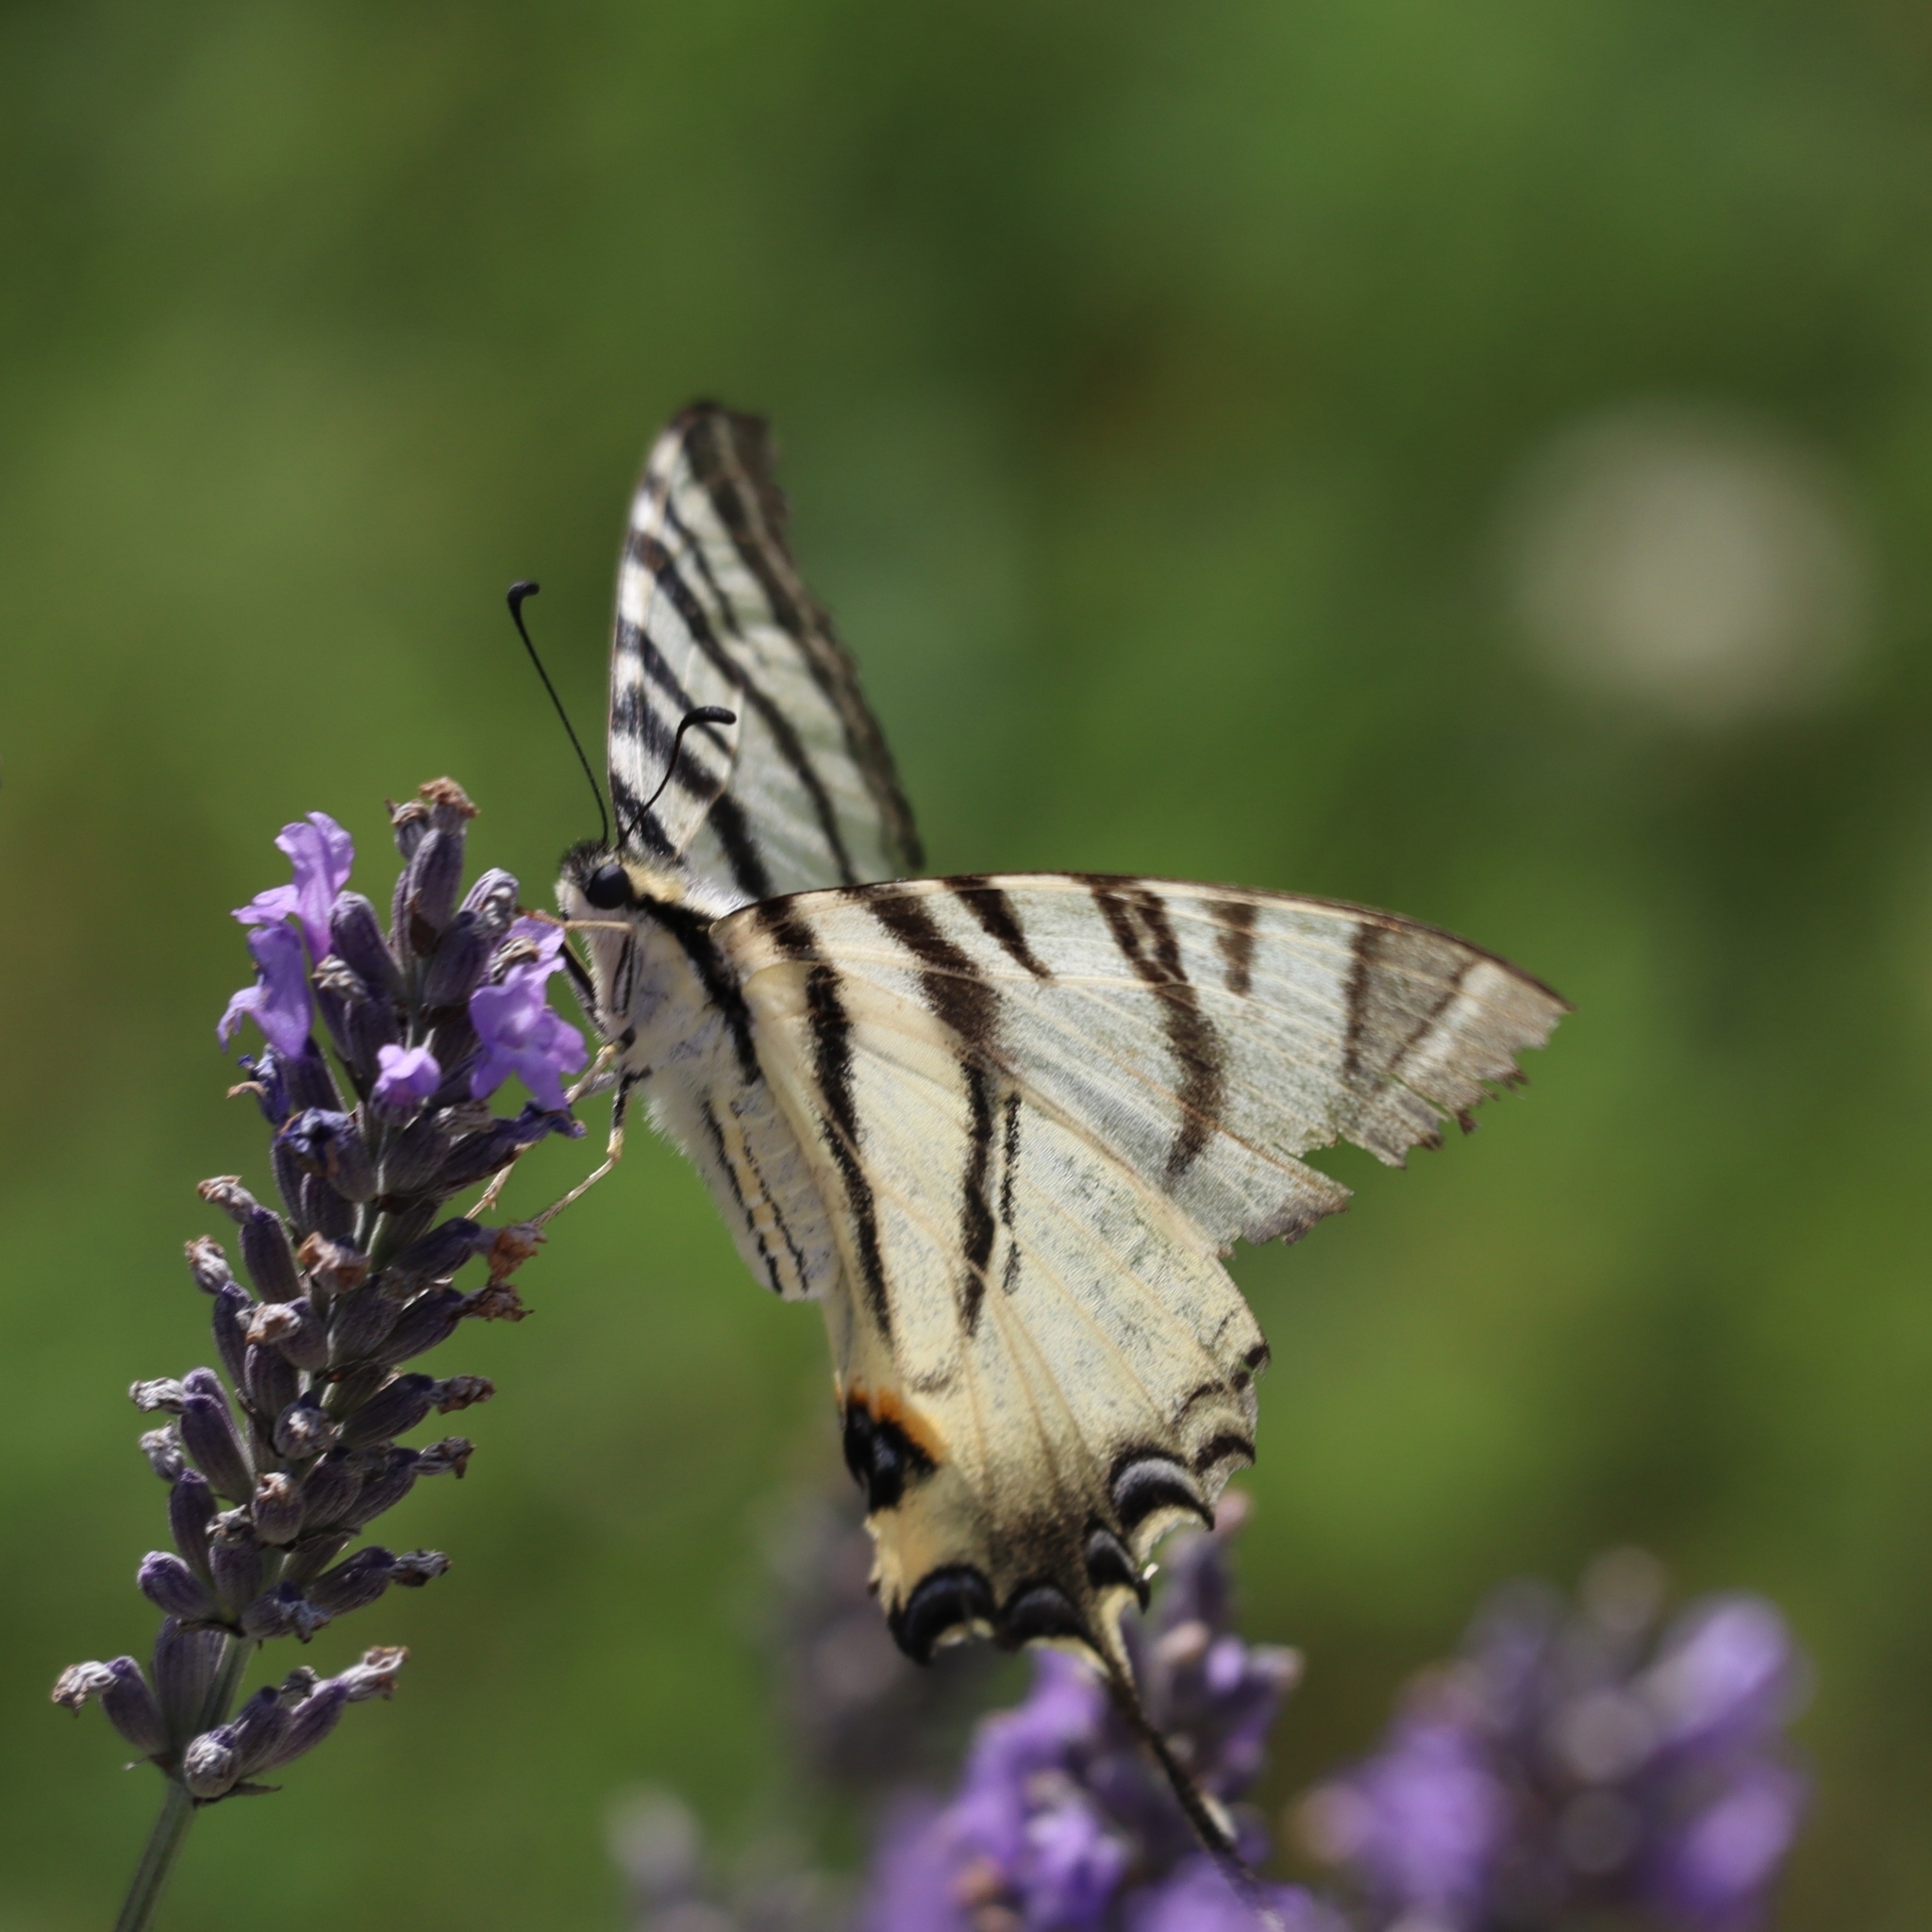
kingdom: Animalia
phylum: Arthropoda
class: Insecta
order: Lepidoptera
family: Papilionidae
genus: Iphiclides
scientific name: Iphiclides podalirius
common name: Scarce swallowtail
